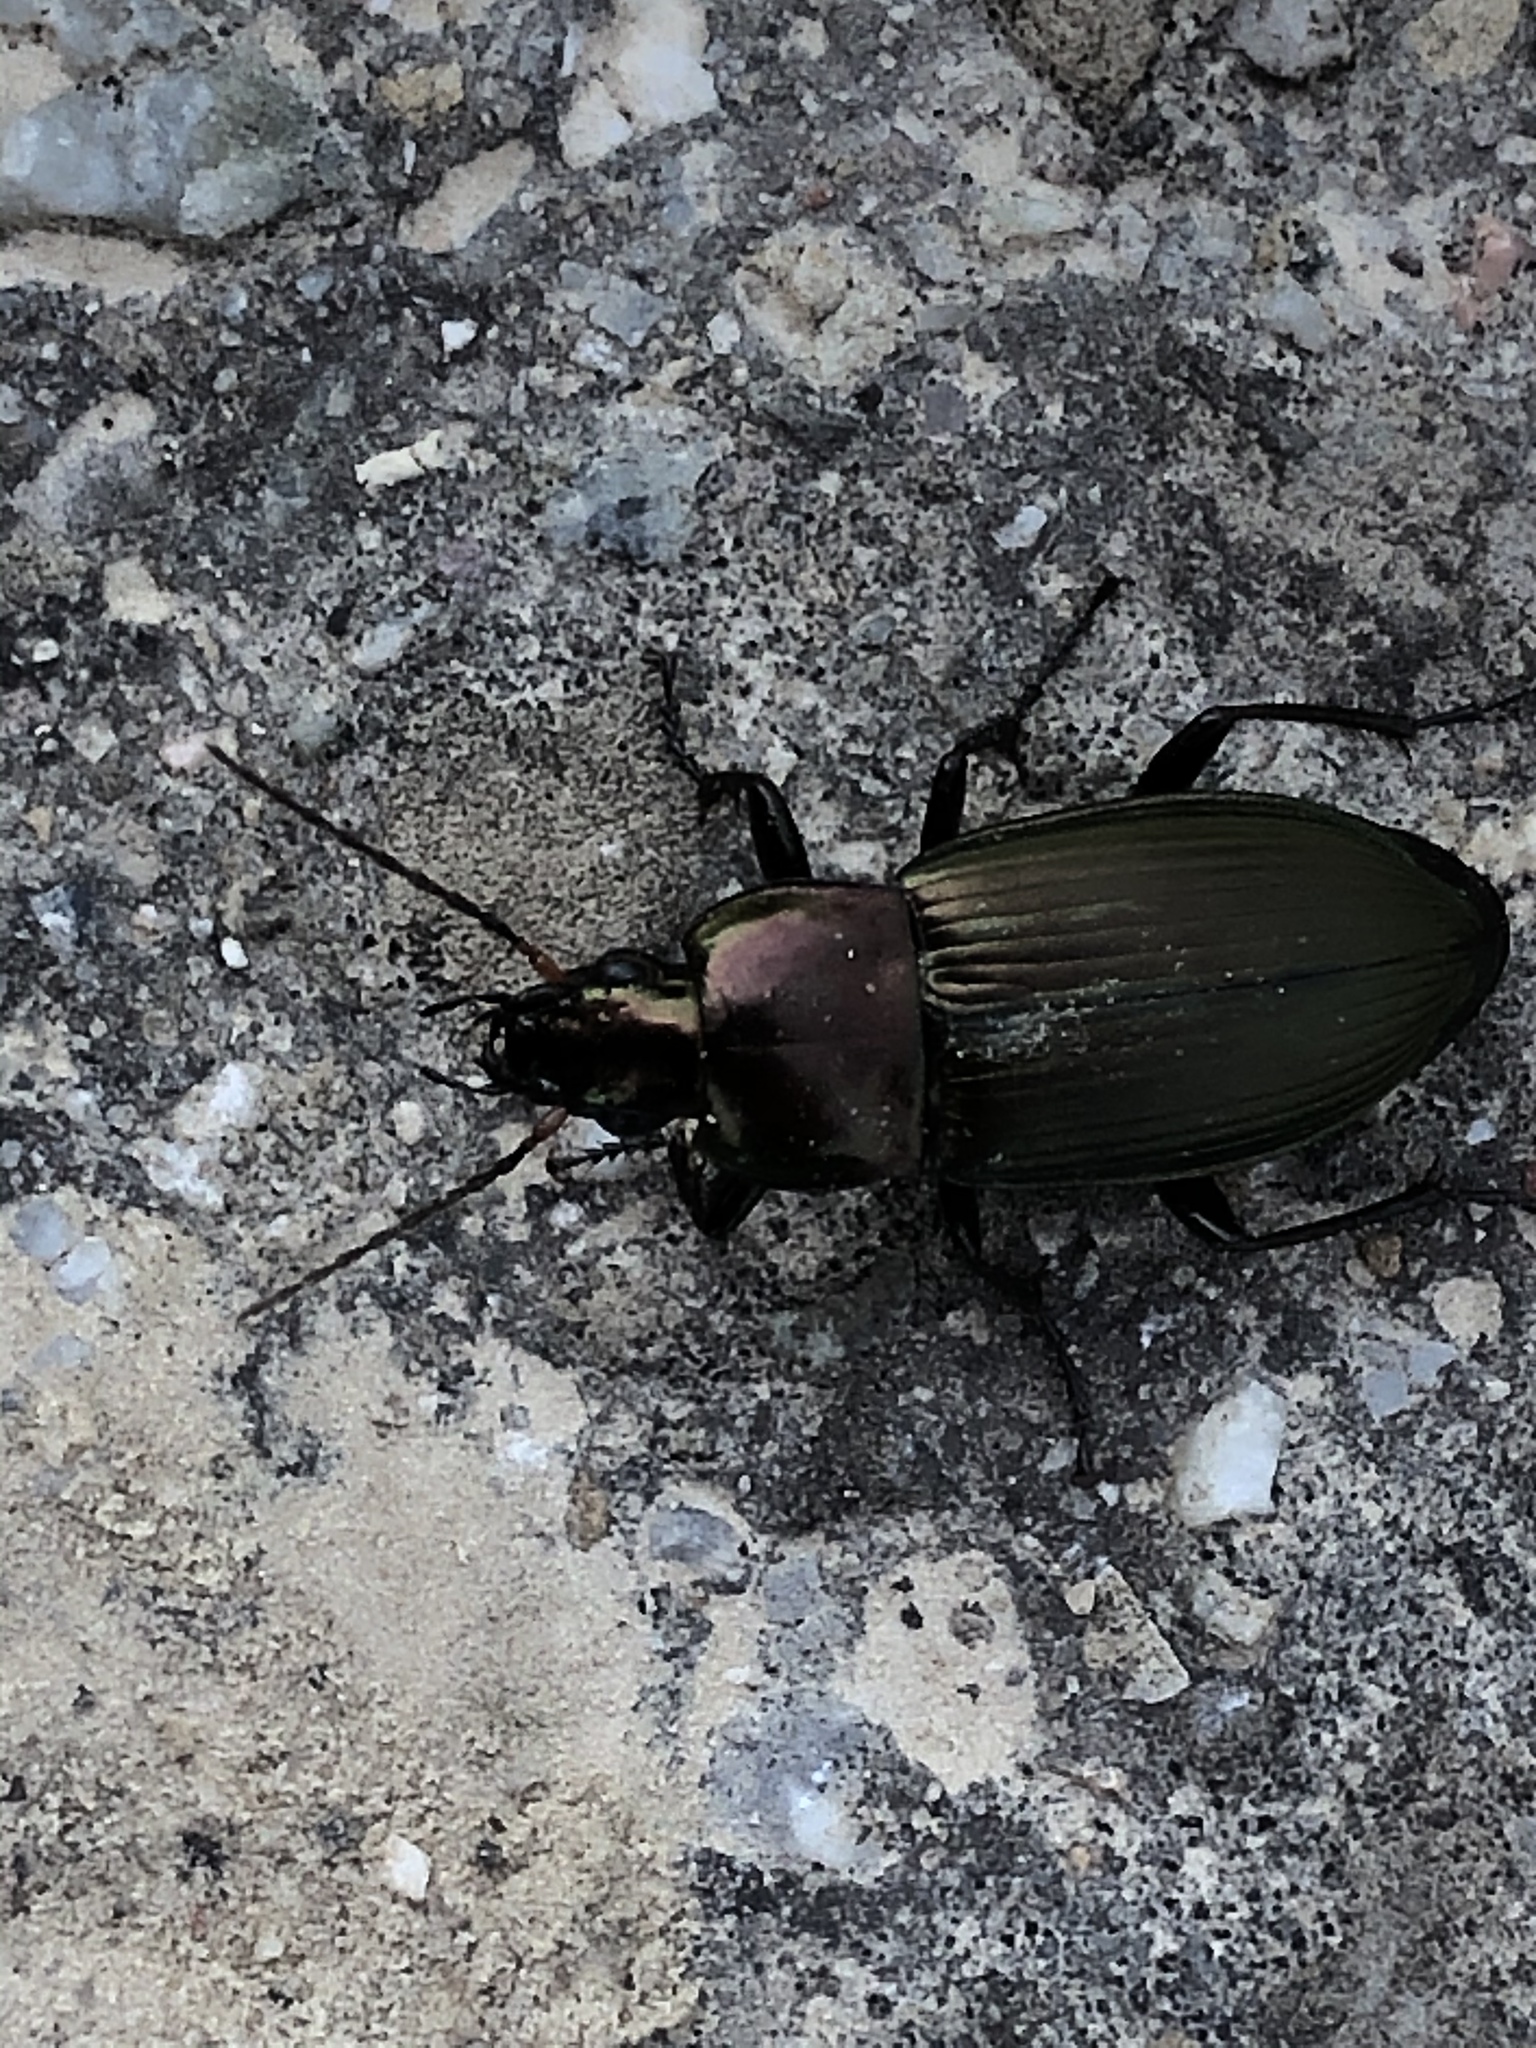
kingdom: Animalia
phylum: Arthropoda
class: Insecta
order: Coleoptera
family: Carabidae
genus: Poecilus
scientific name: Poecilus cupreus
